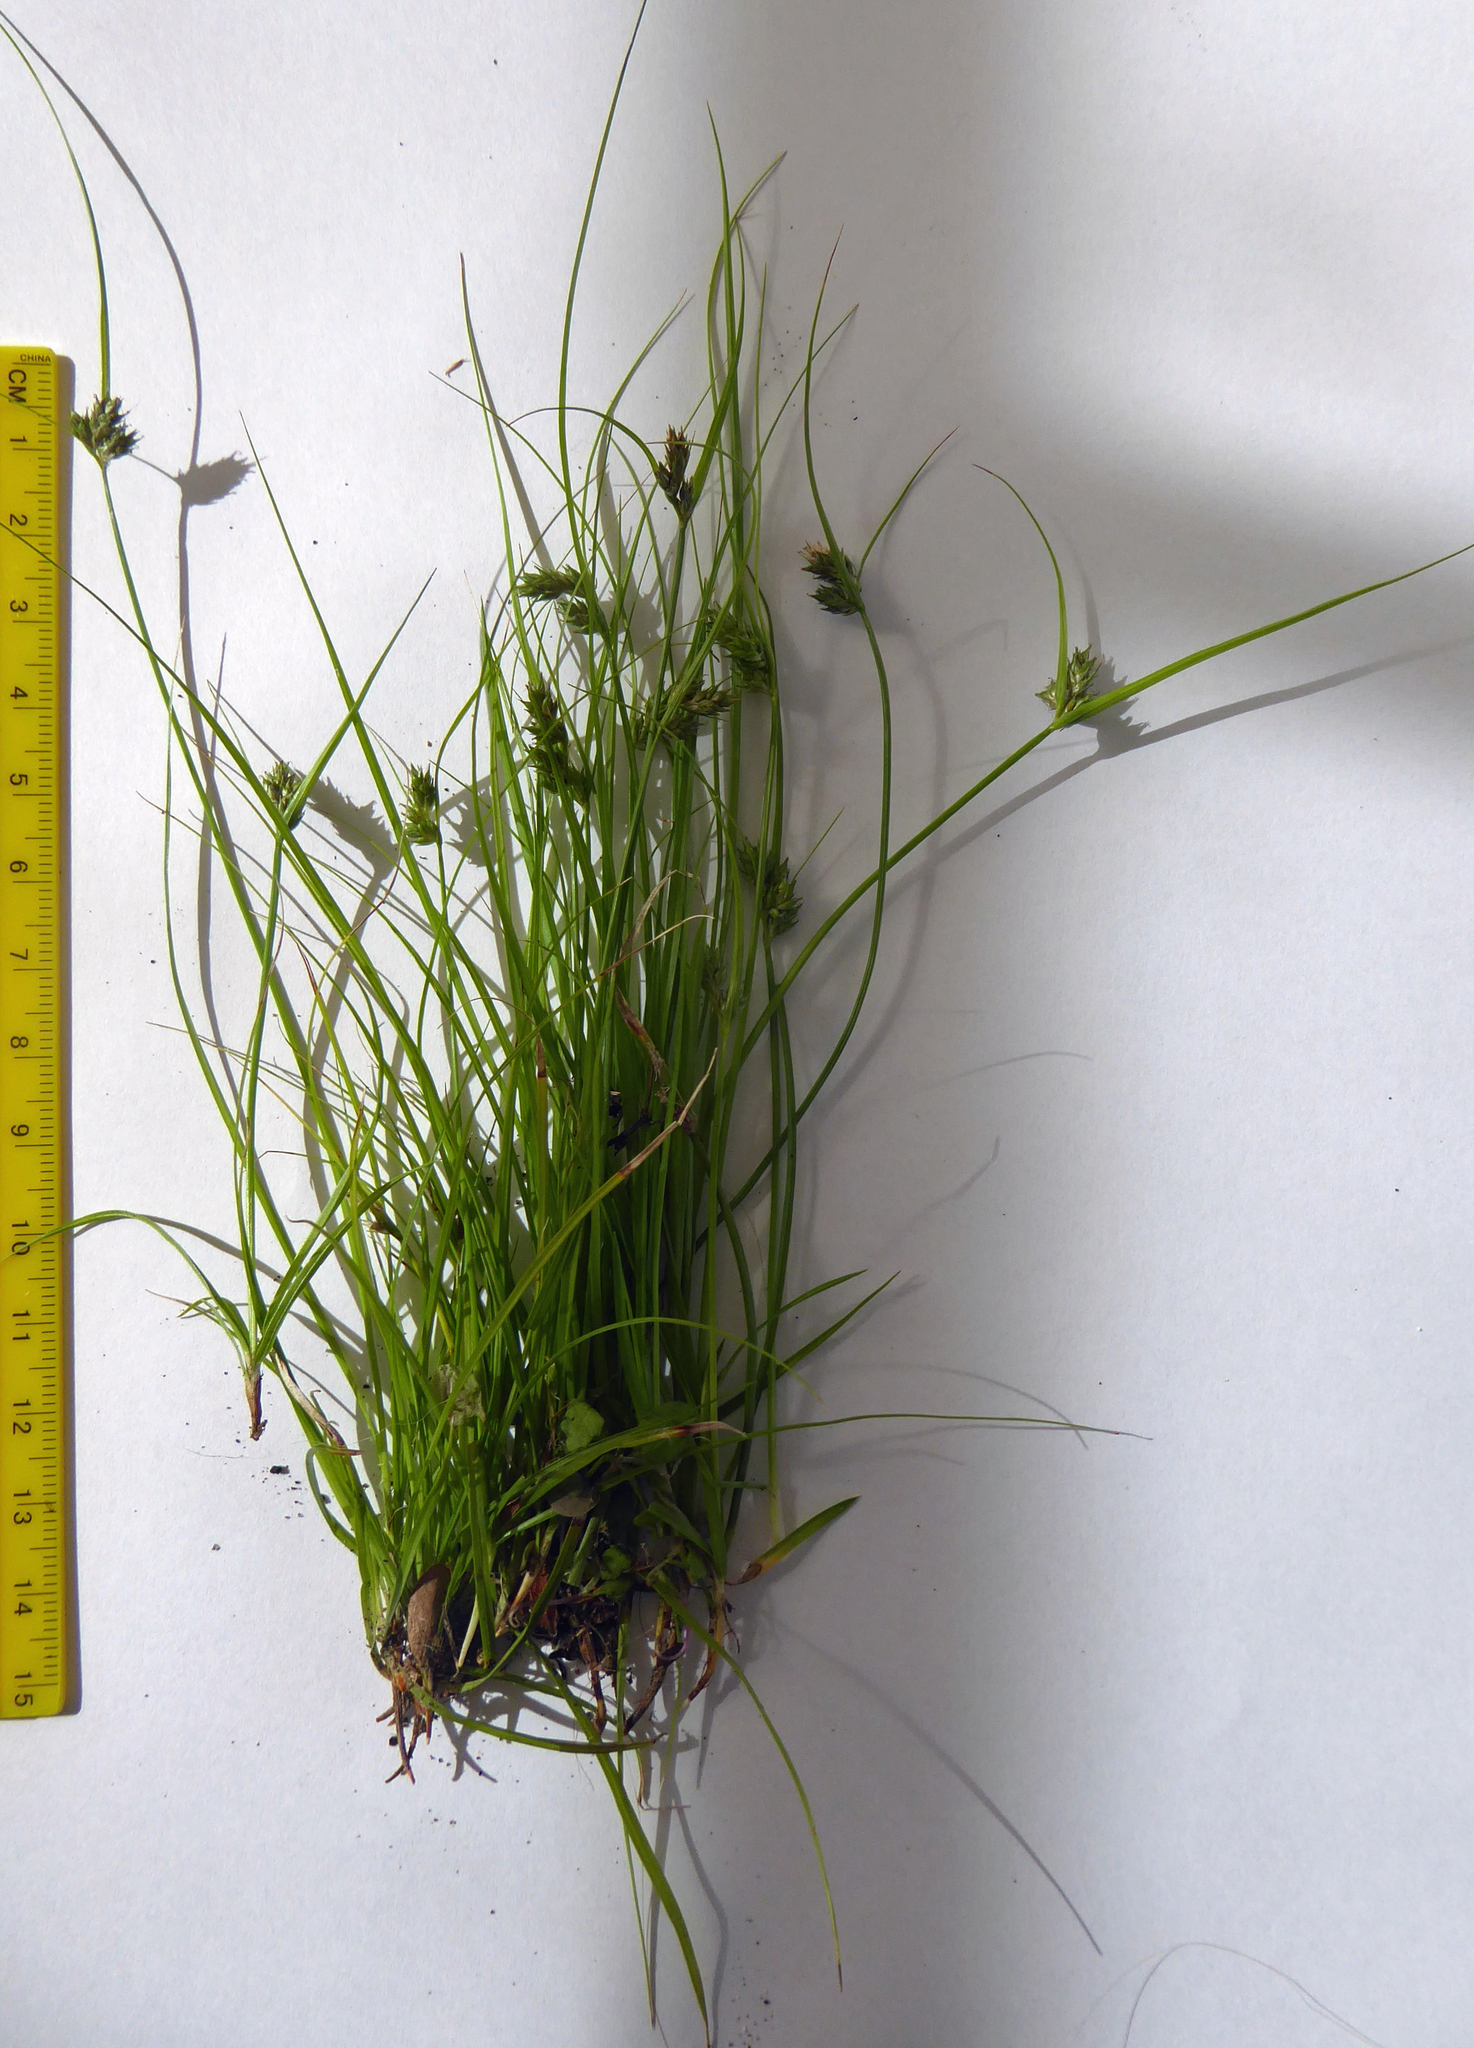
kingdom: Plantae
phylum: Tracheophyta
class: Liliopsida
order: Poales
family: Cyperaceae
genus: Carex
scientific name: Carex inversa
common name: Knob sedge
